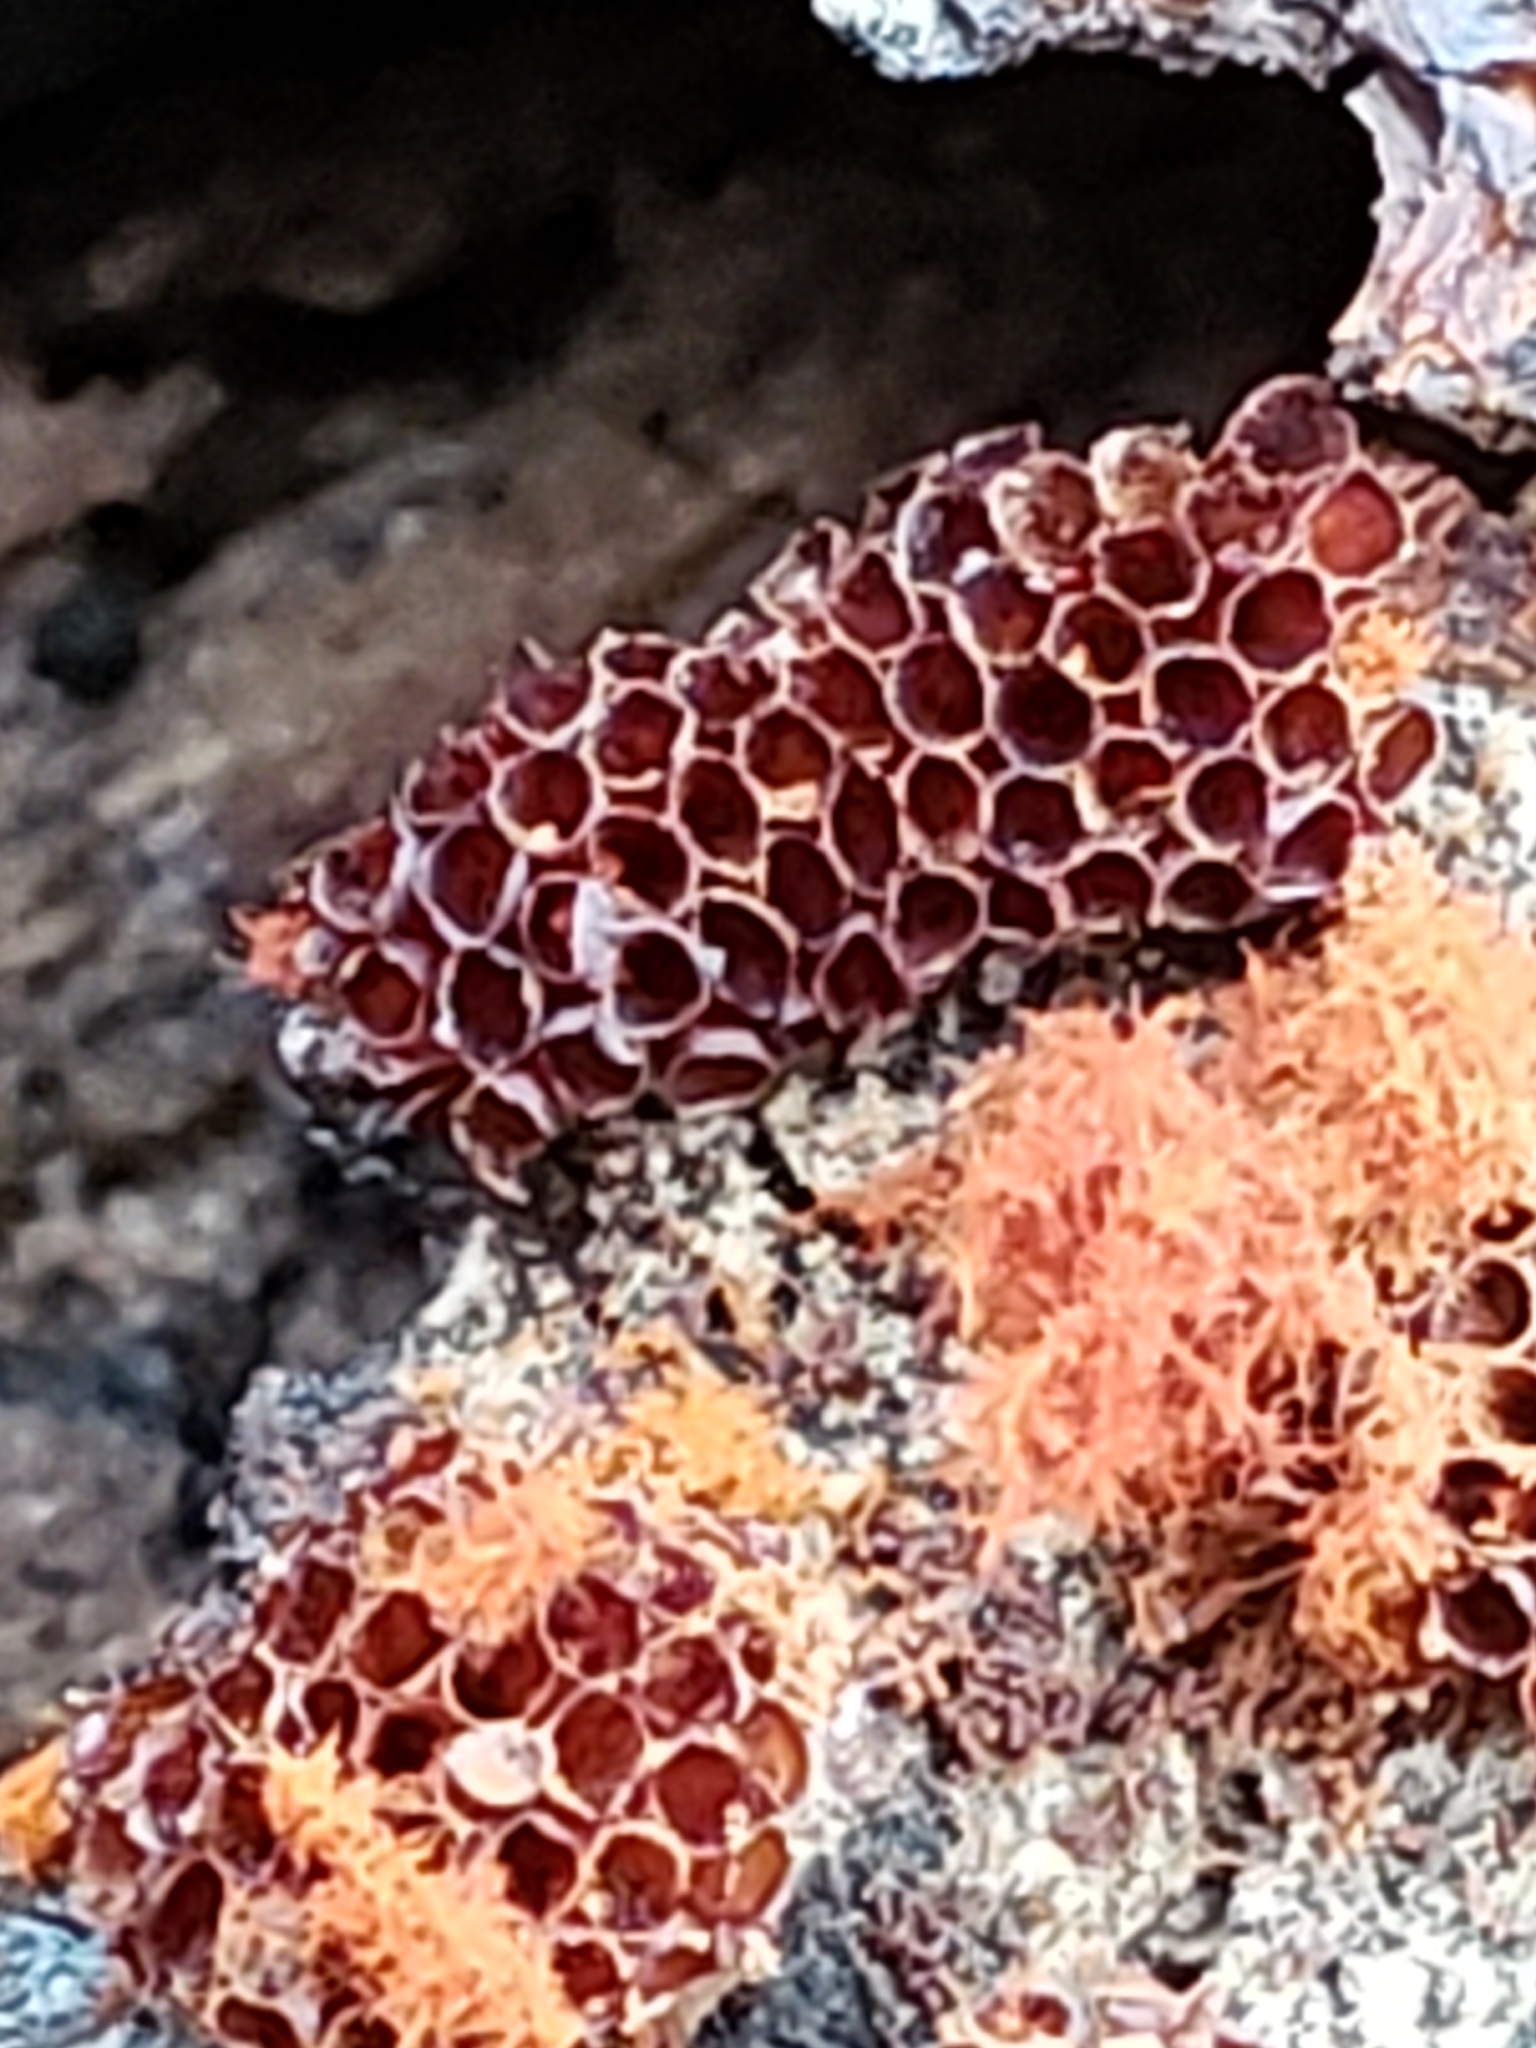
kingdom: Protozoa
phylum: Mycetozoa
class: Myxomycetes
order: Trichiales
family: Trichiaceae
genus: Metatrichia
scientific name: Metatrichia vesparia
